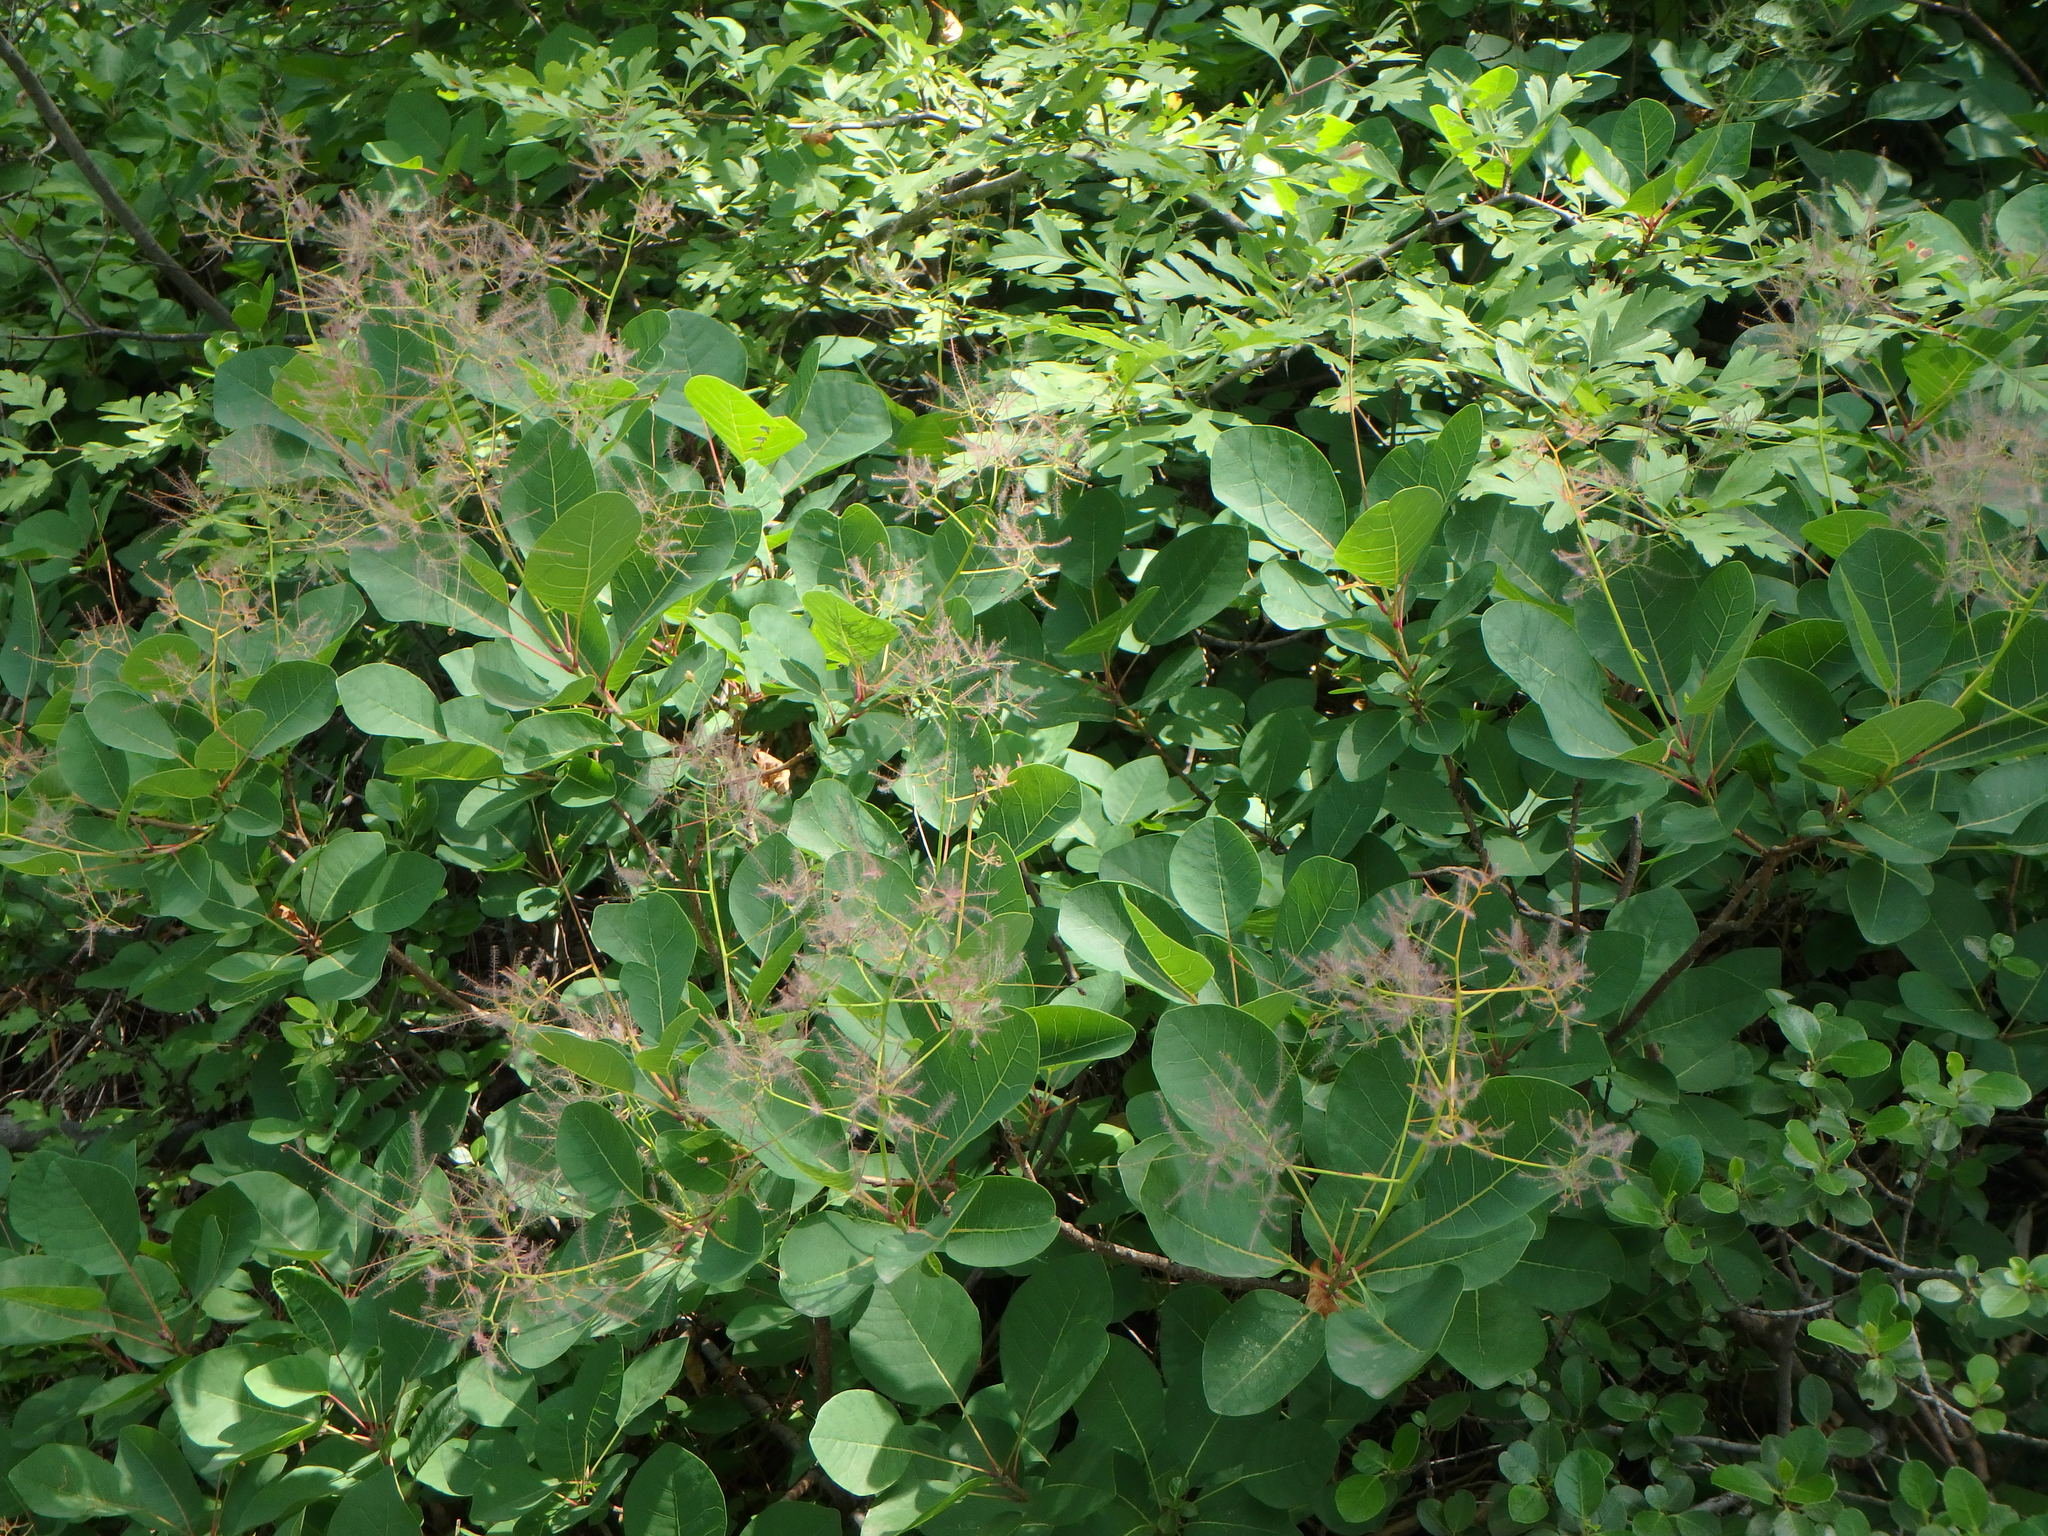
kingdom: Plantae
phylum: Tracheophyta
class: Magnoliopsida
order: Sapindales
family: Anacardiaceae
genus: Cotinus
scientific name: Cotinus coggygria
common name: Smoke-tree
